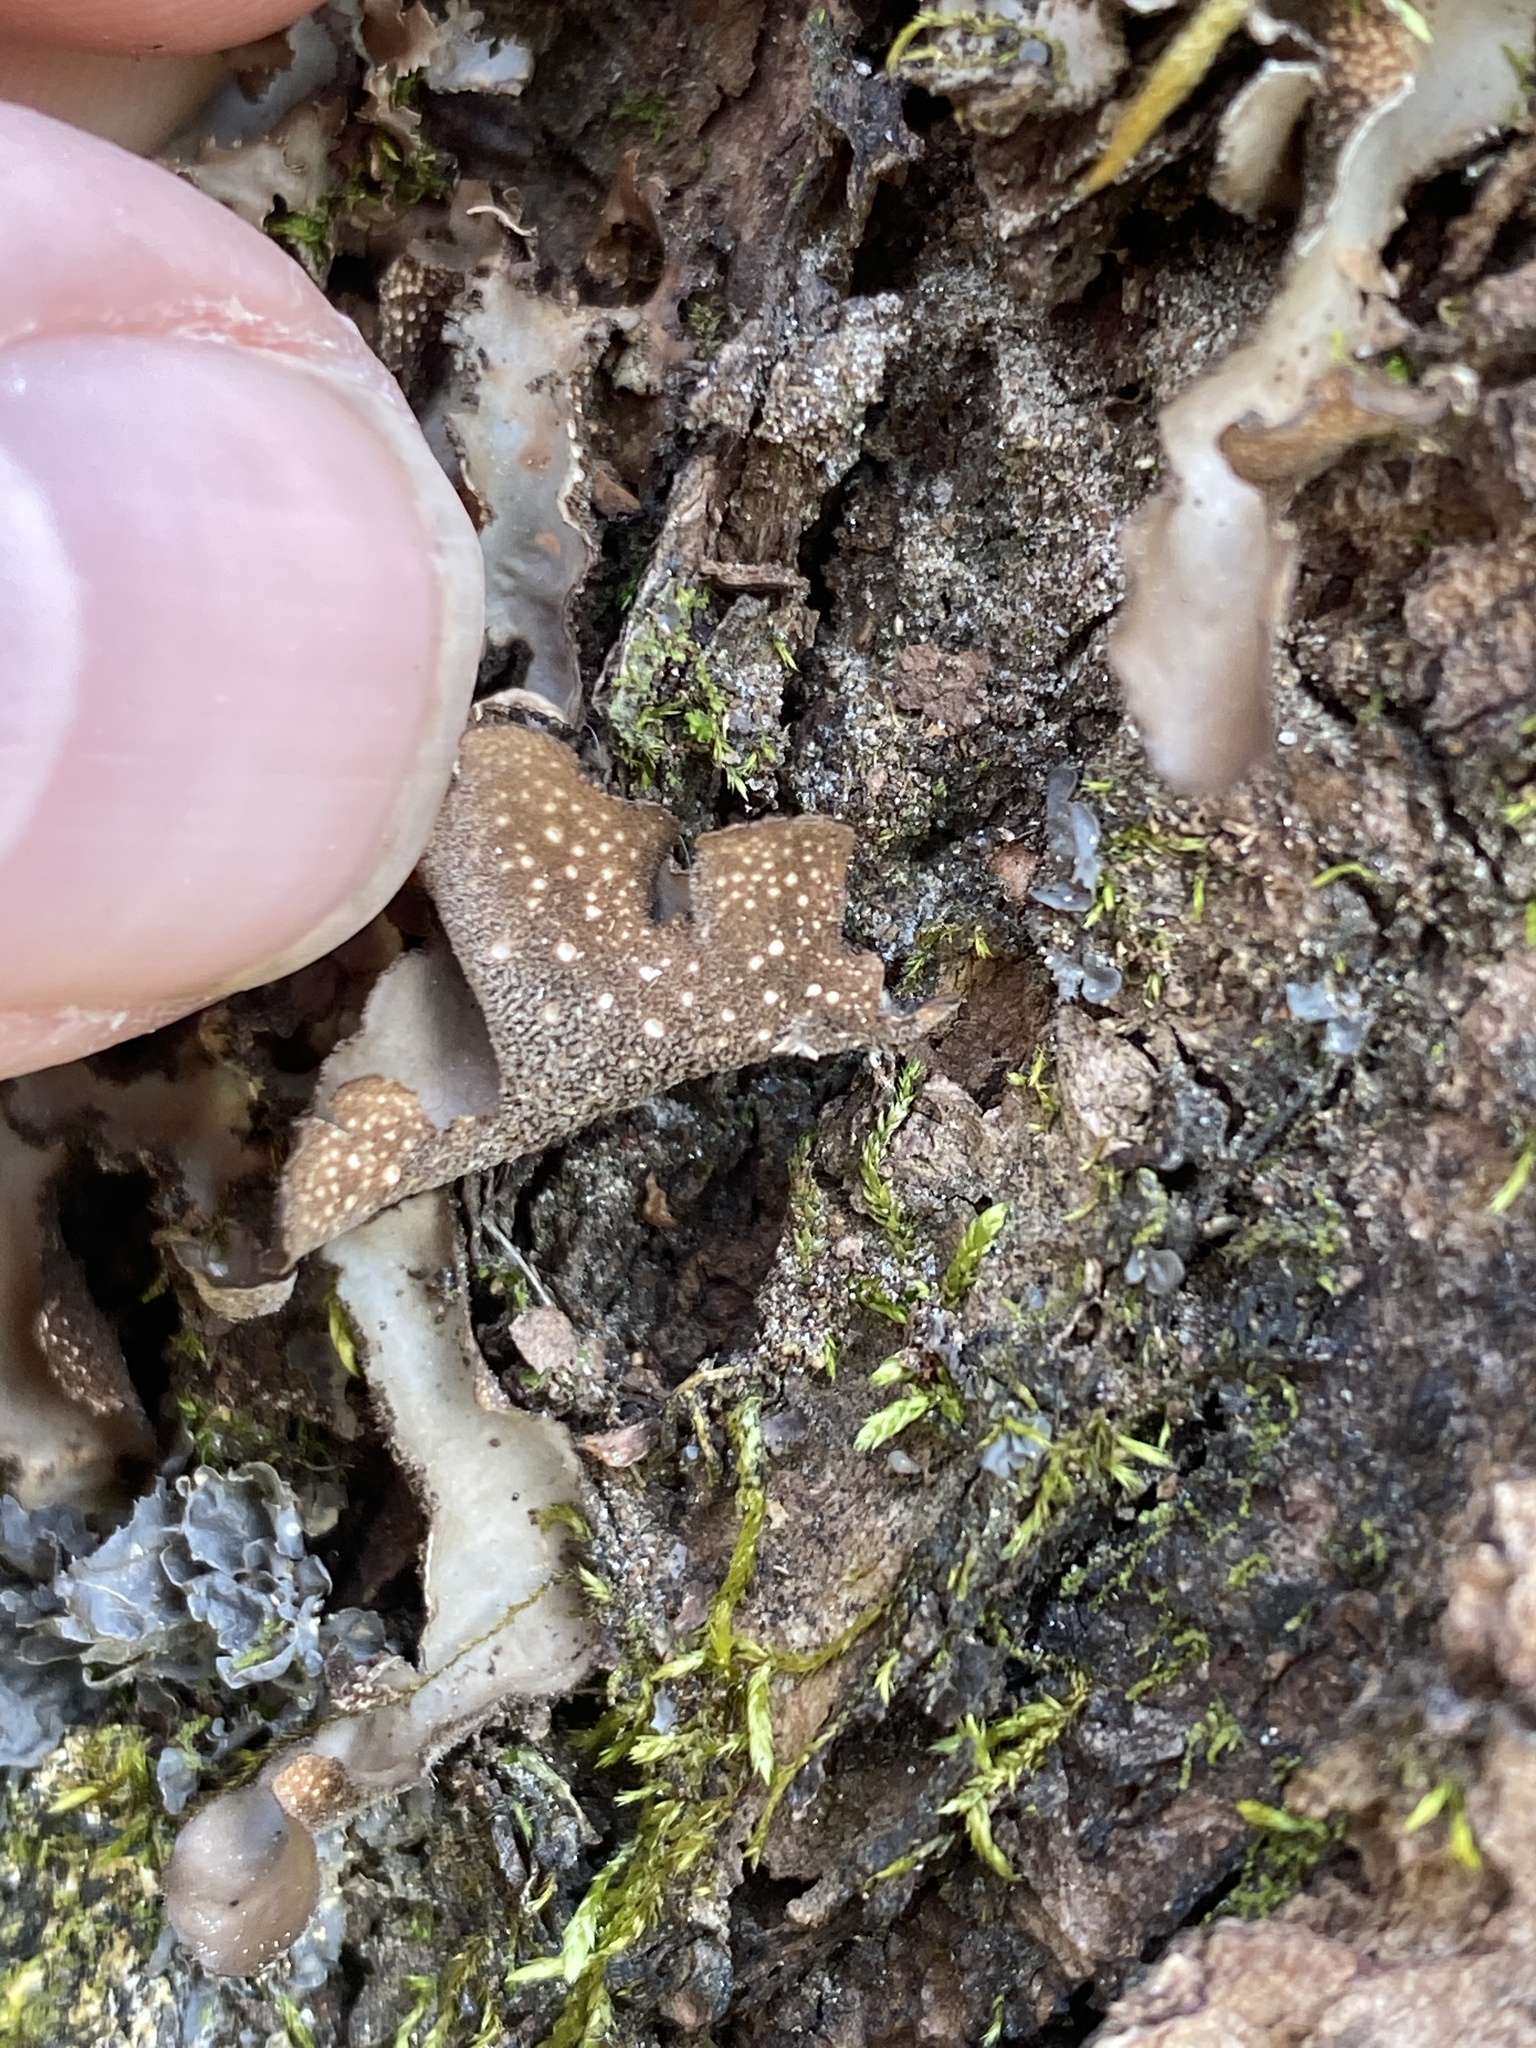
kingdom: Fungi
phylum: Ascomycota
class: Lecanoromycetes
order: Peltigerales
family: Lobariaceae
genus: Sticta
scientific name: Sticta beauvoisii
